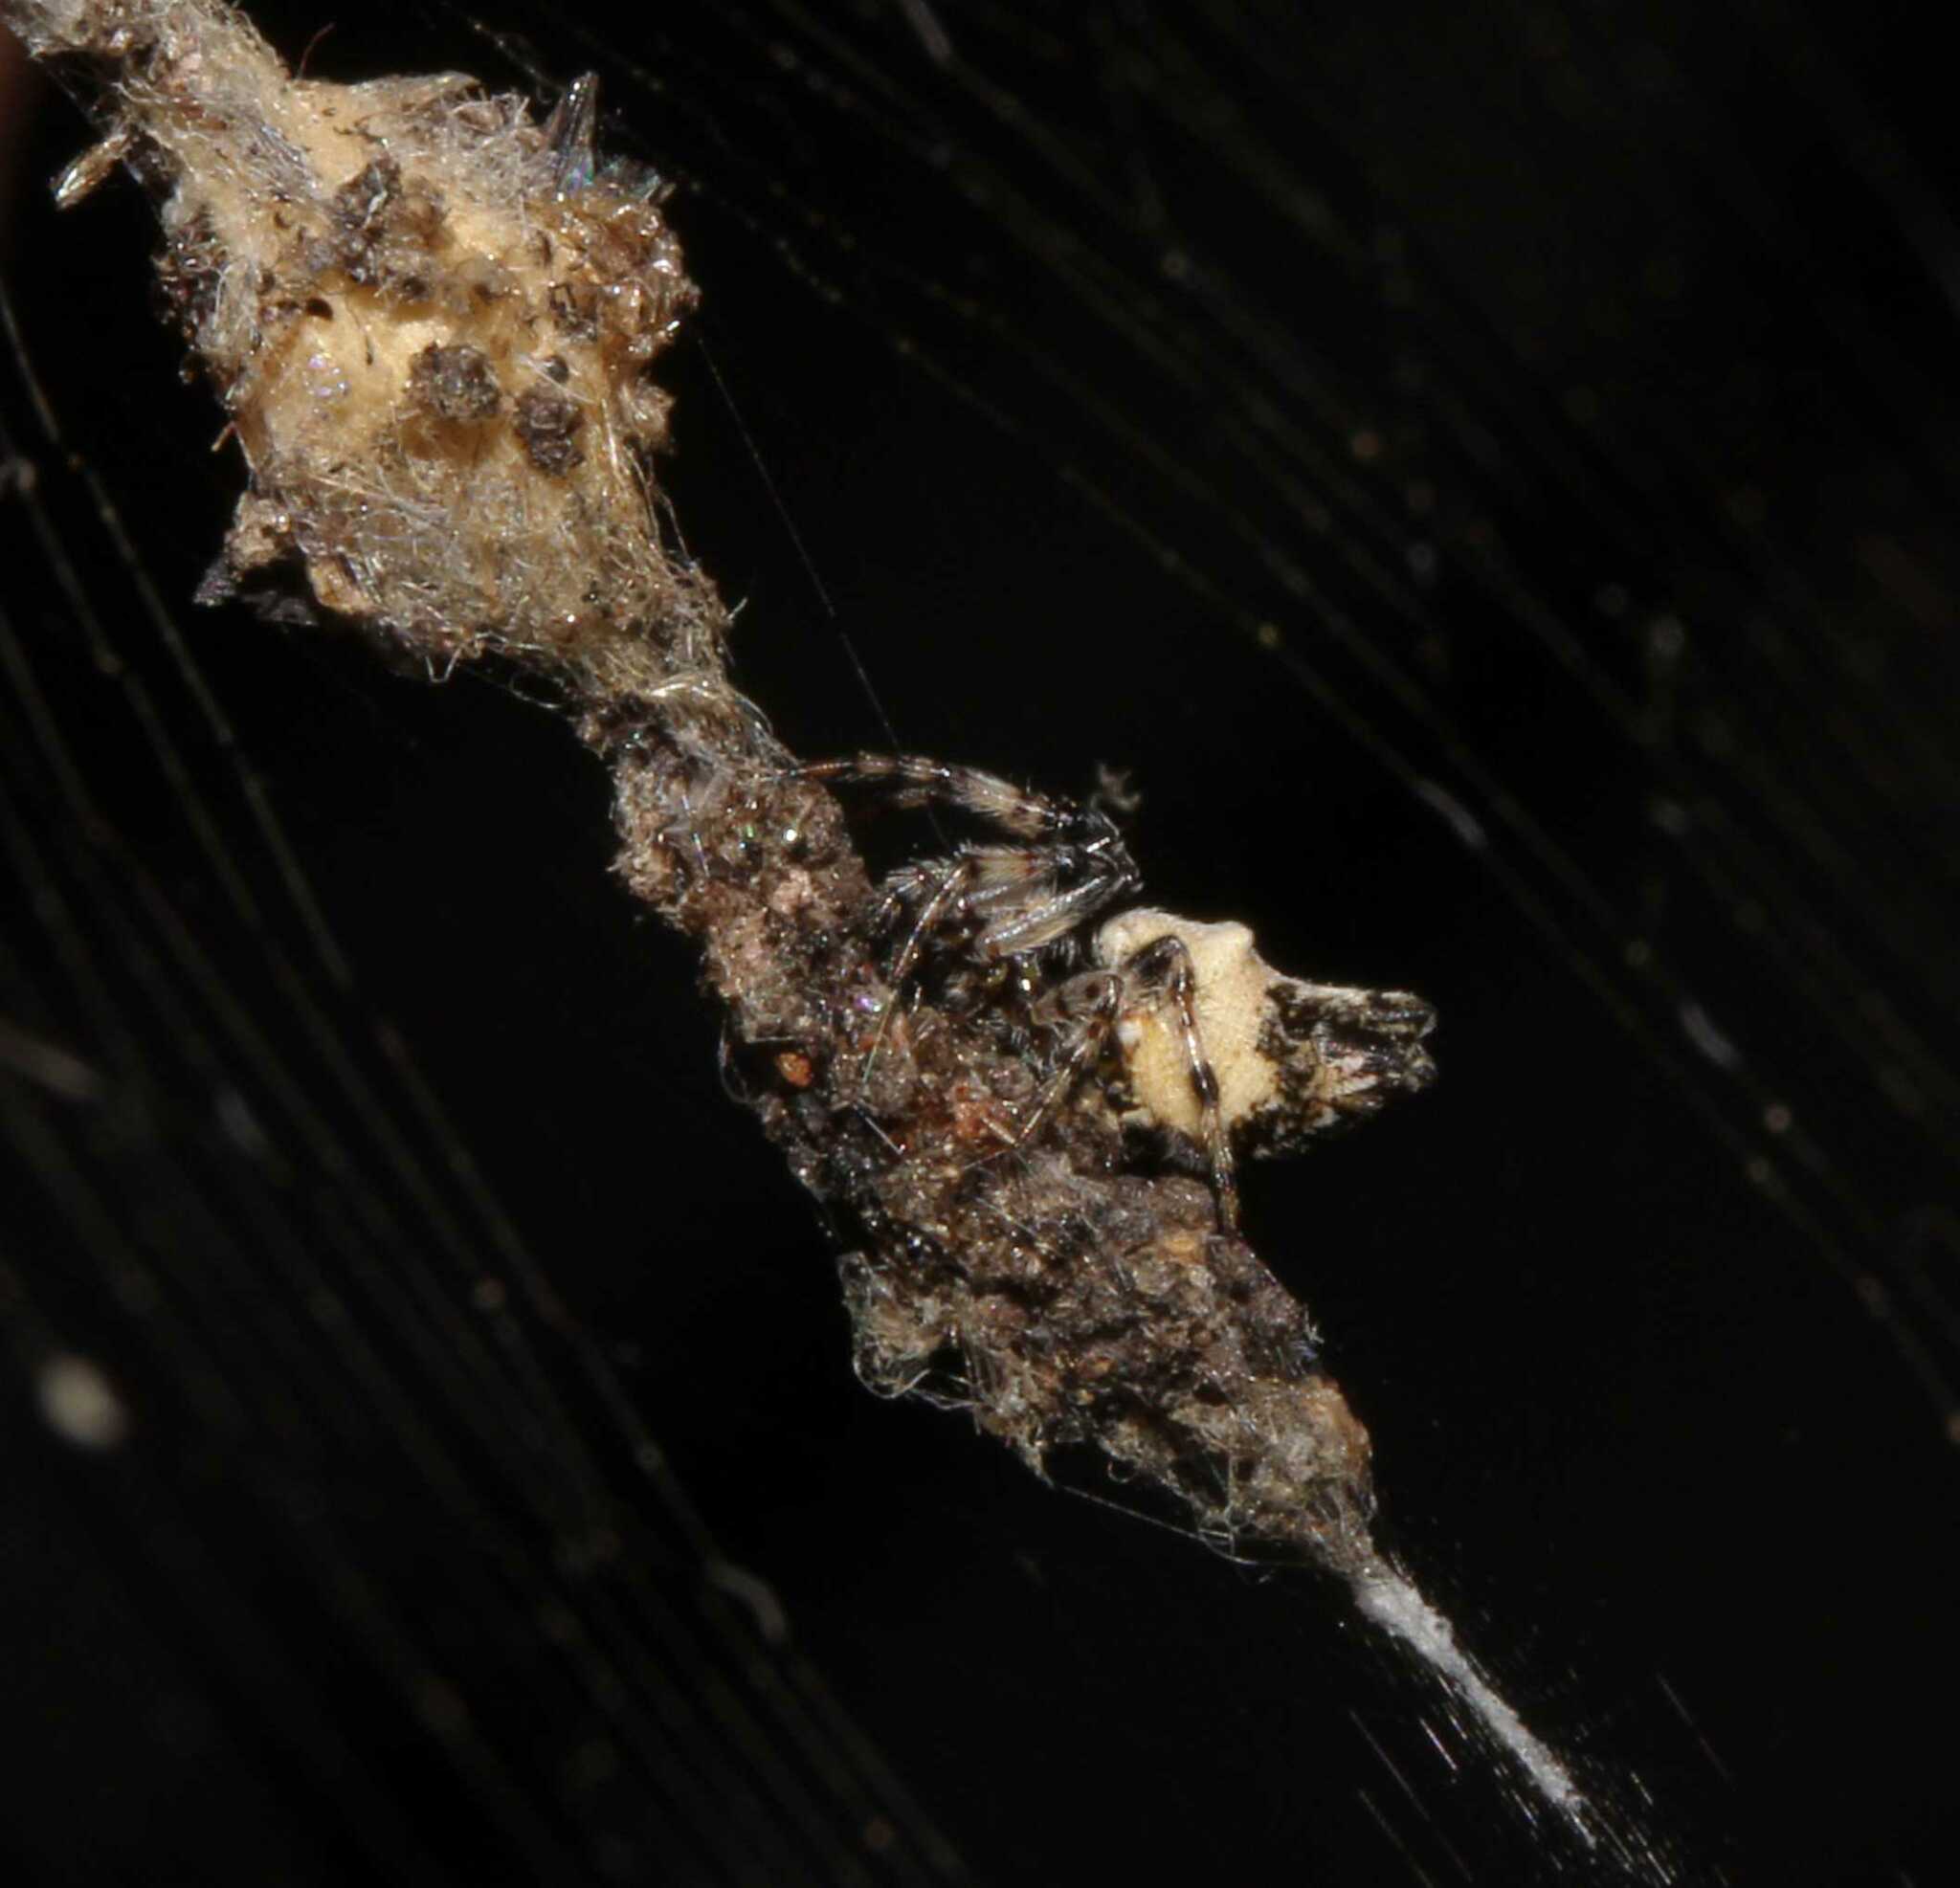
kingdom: Animalia
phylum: Arthropoda
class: Arachnida
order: Araneae
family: Araneidae
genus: Cyclosa
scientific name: Cyclosa turbinata
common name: Orb weavers
